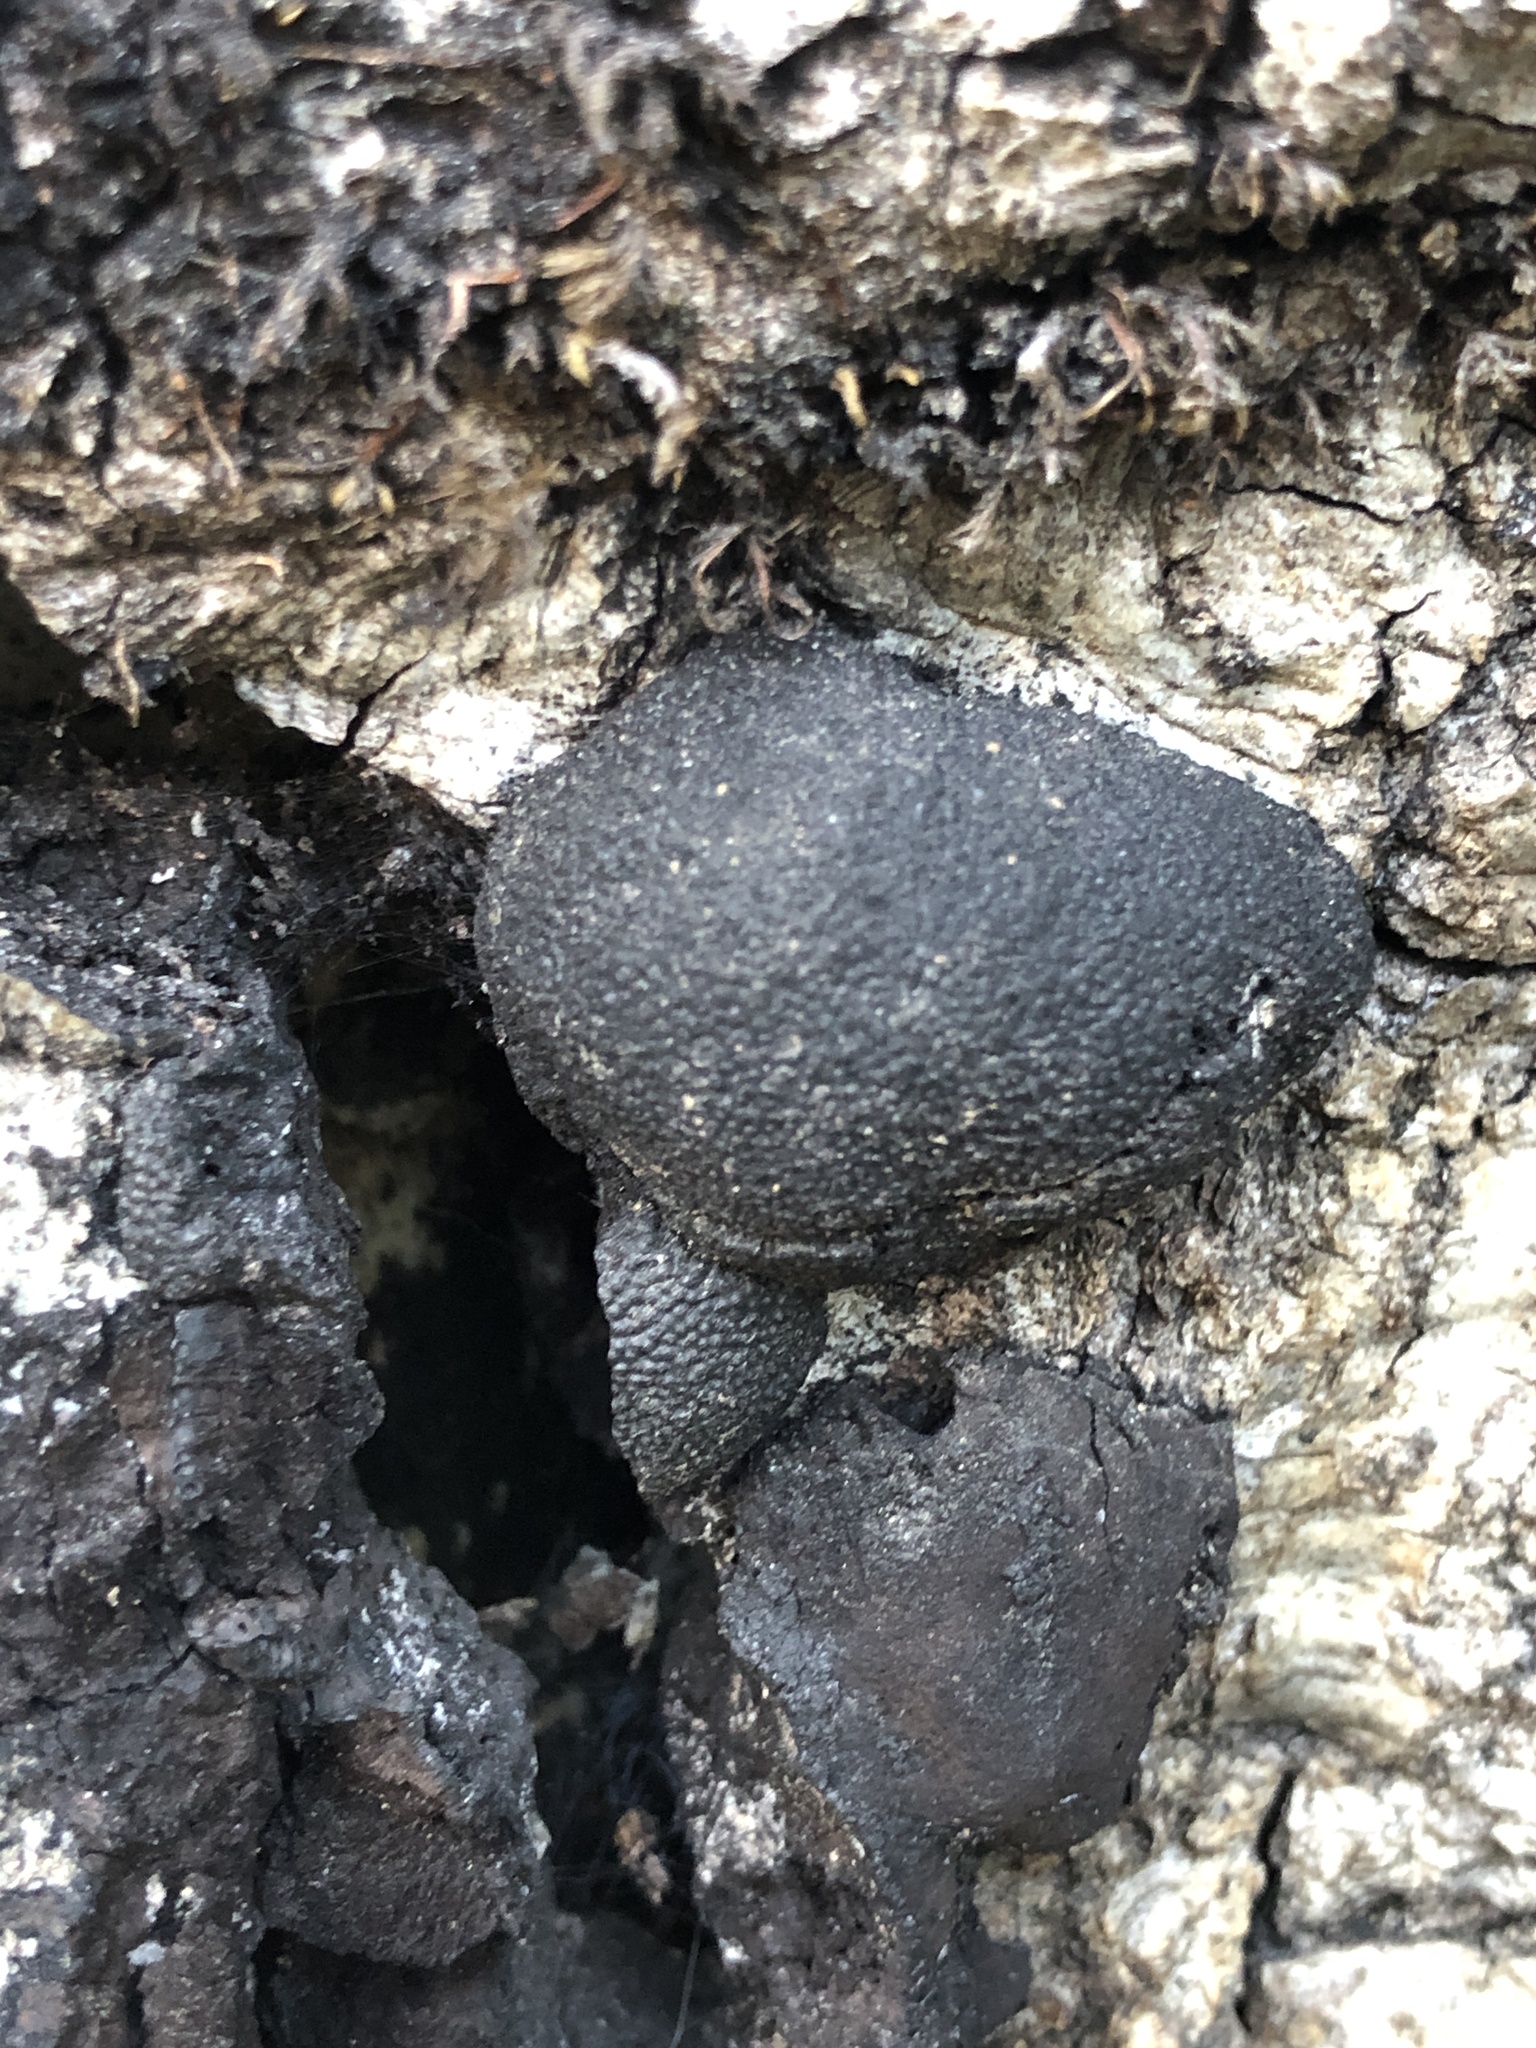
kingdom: Fungi
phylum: Ascomycota
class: Sordariomycetes
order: Xylariales
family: Hypoxylaceae
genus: Annulohypoxylon
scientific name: Annulohypoxylon thouarsianum
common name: Cramp balls
